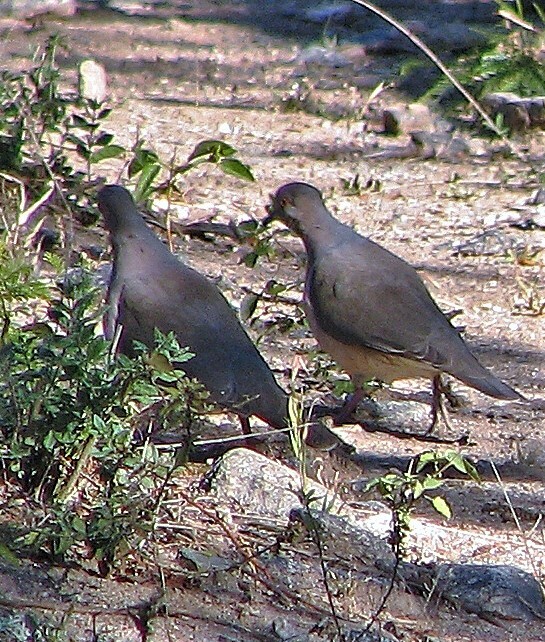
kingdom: Animalia
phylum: Chordata
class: Aves
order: Columbiformes
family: Columbidae
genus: Leptotila
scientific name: Leptotila verreauxi
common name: White-tipped dove
